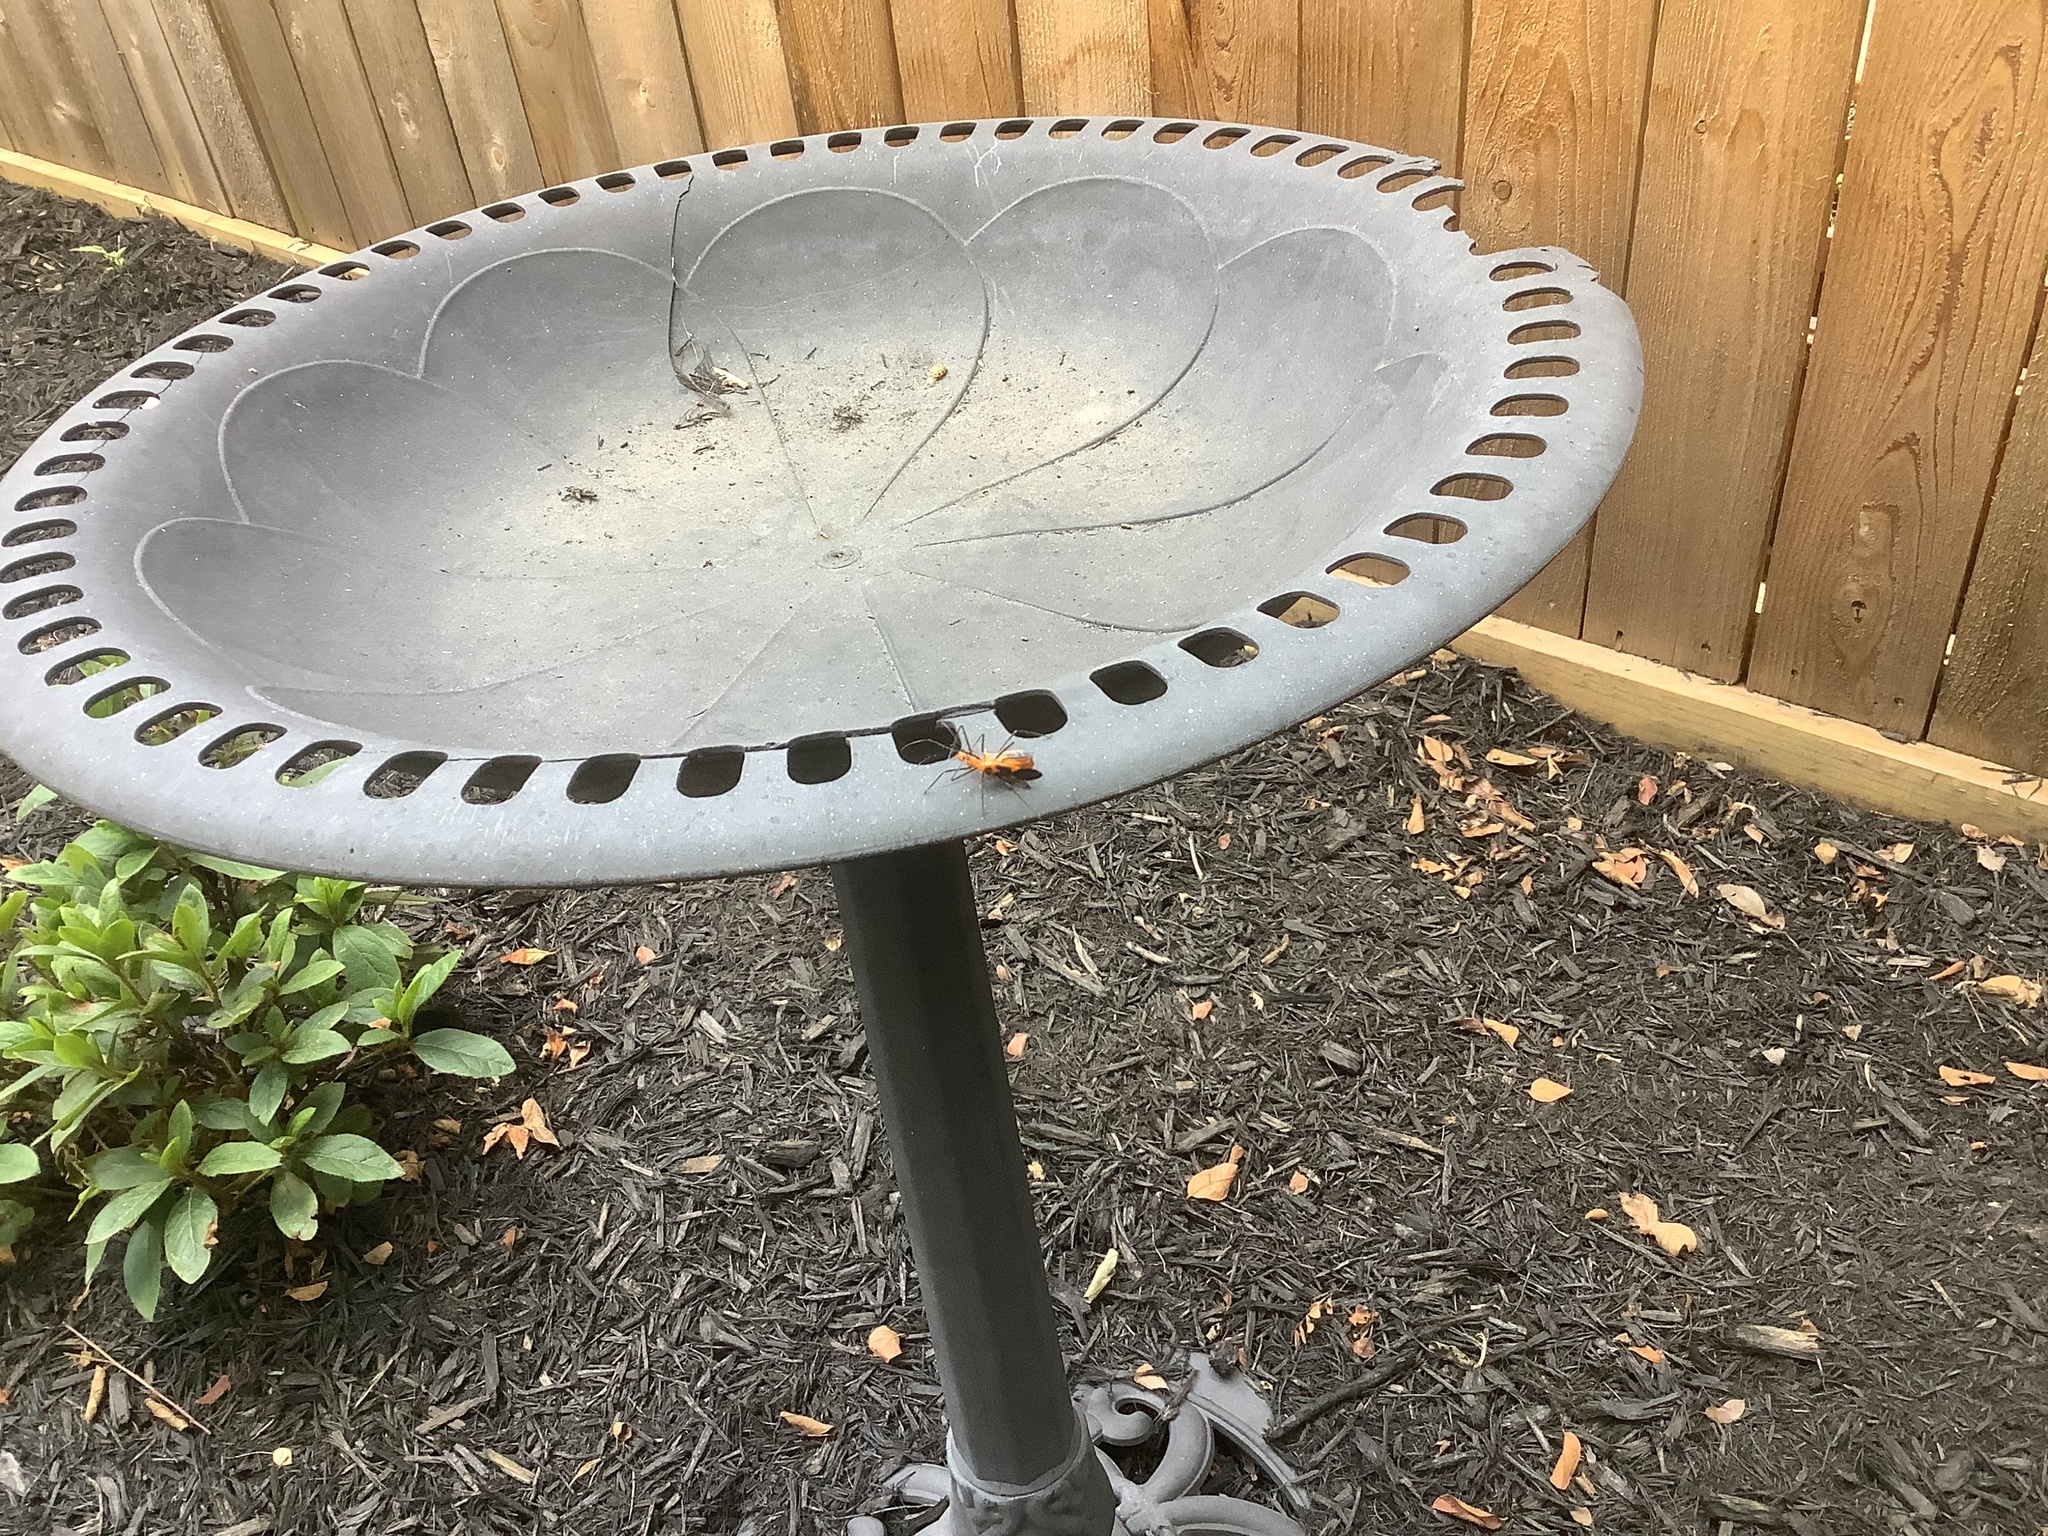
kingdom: Animalia
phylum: Arthropoda
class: Insecta
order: Hemiptera
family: Reduviidae
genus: Zelus
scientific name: Zelus longipes
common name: Milkweed assassin bug
